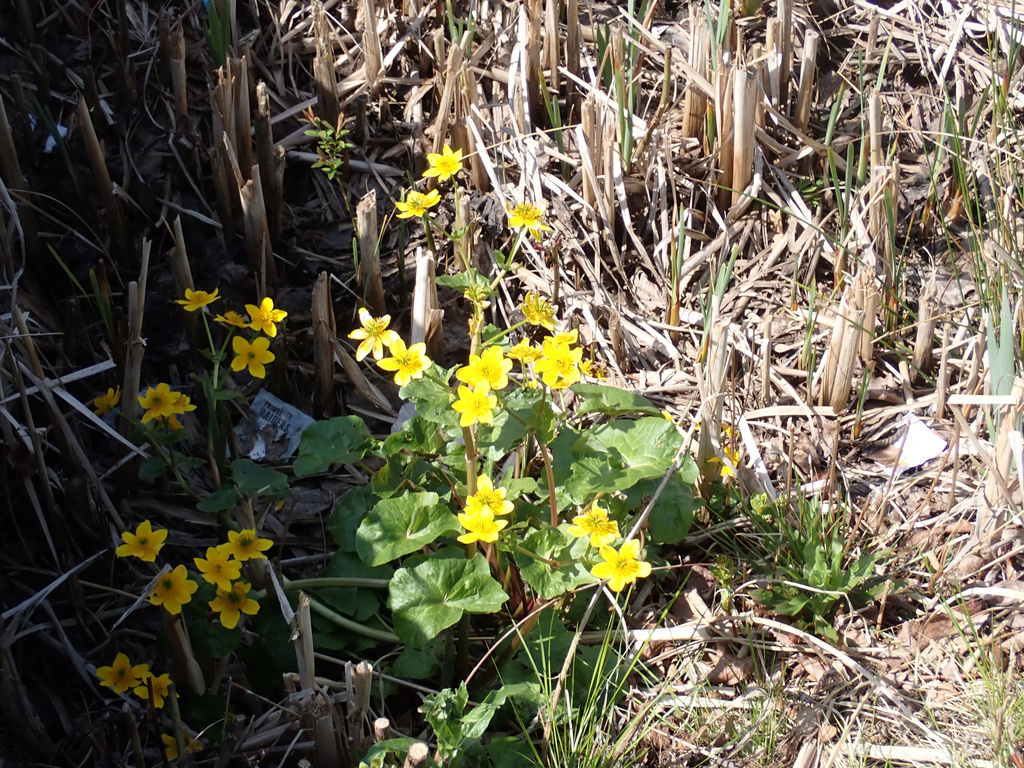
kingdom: Plantae
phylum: Tracheophyta
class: Magnoliopsida
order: Ranunculales
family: Ranunculaceae
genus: Caltha
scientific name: Caltha palustris
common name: Marsh marigold
